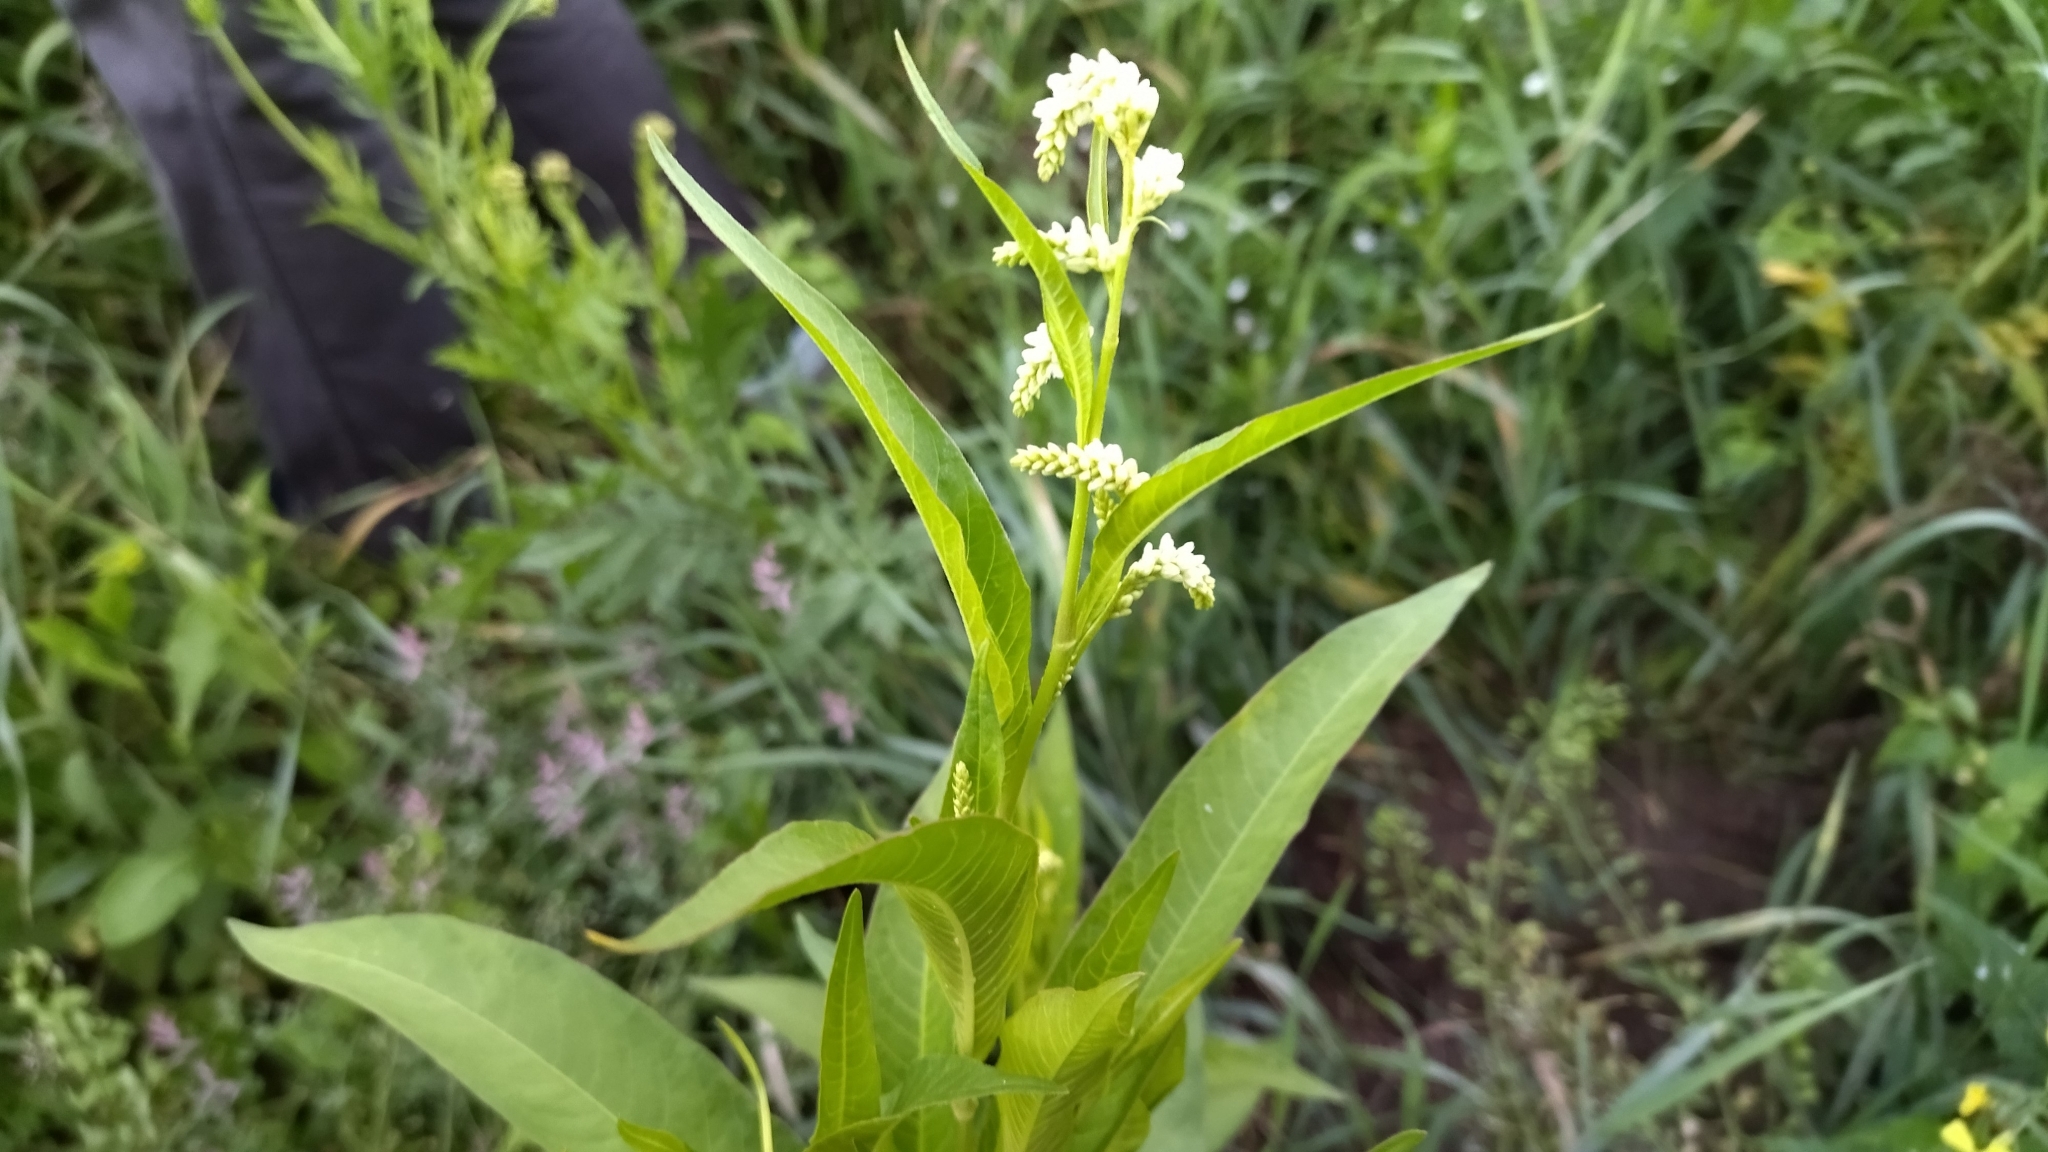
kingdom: Plantae
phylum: Tracheophyta
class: Magnoliopsida
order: Caryophyllales
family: Polygonaceae
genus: Persicaria
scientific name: Persicaria lapathifolia
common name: Curlytop knotweed
